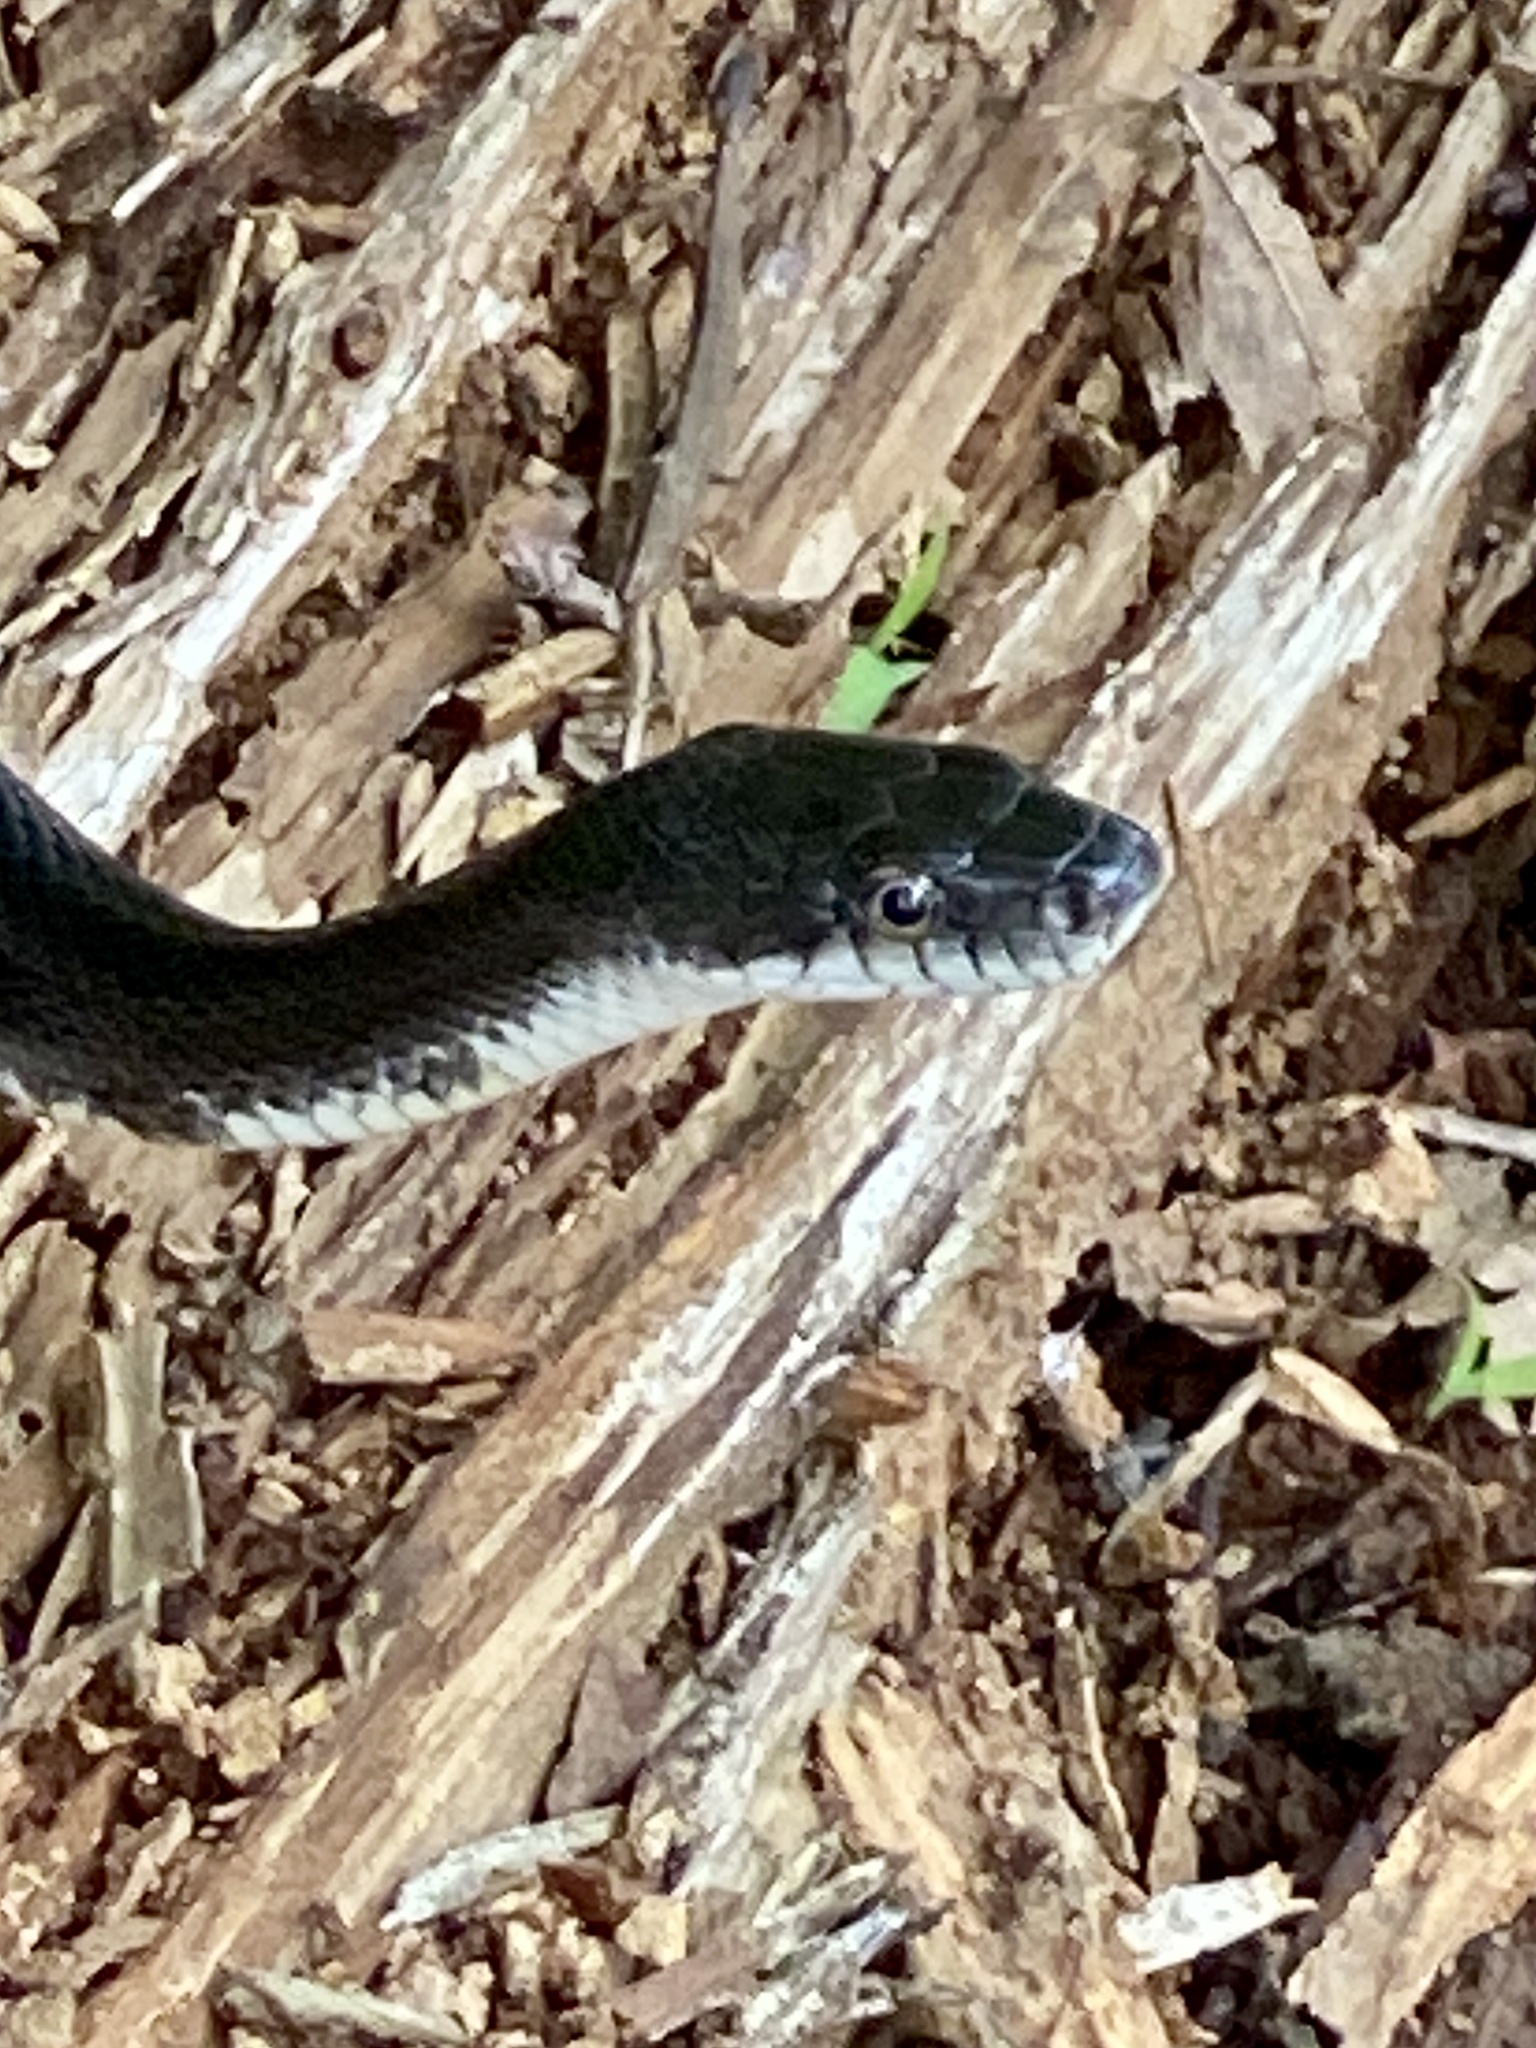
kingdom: Animalia
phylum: Chordata
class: Squamata
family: Colubridae
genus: Pantherophis
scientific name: Pantherophis alleghaniensis
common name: Eastern rat snake
